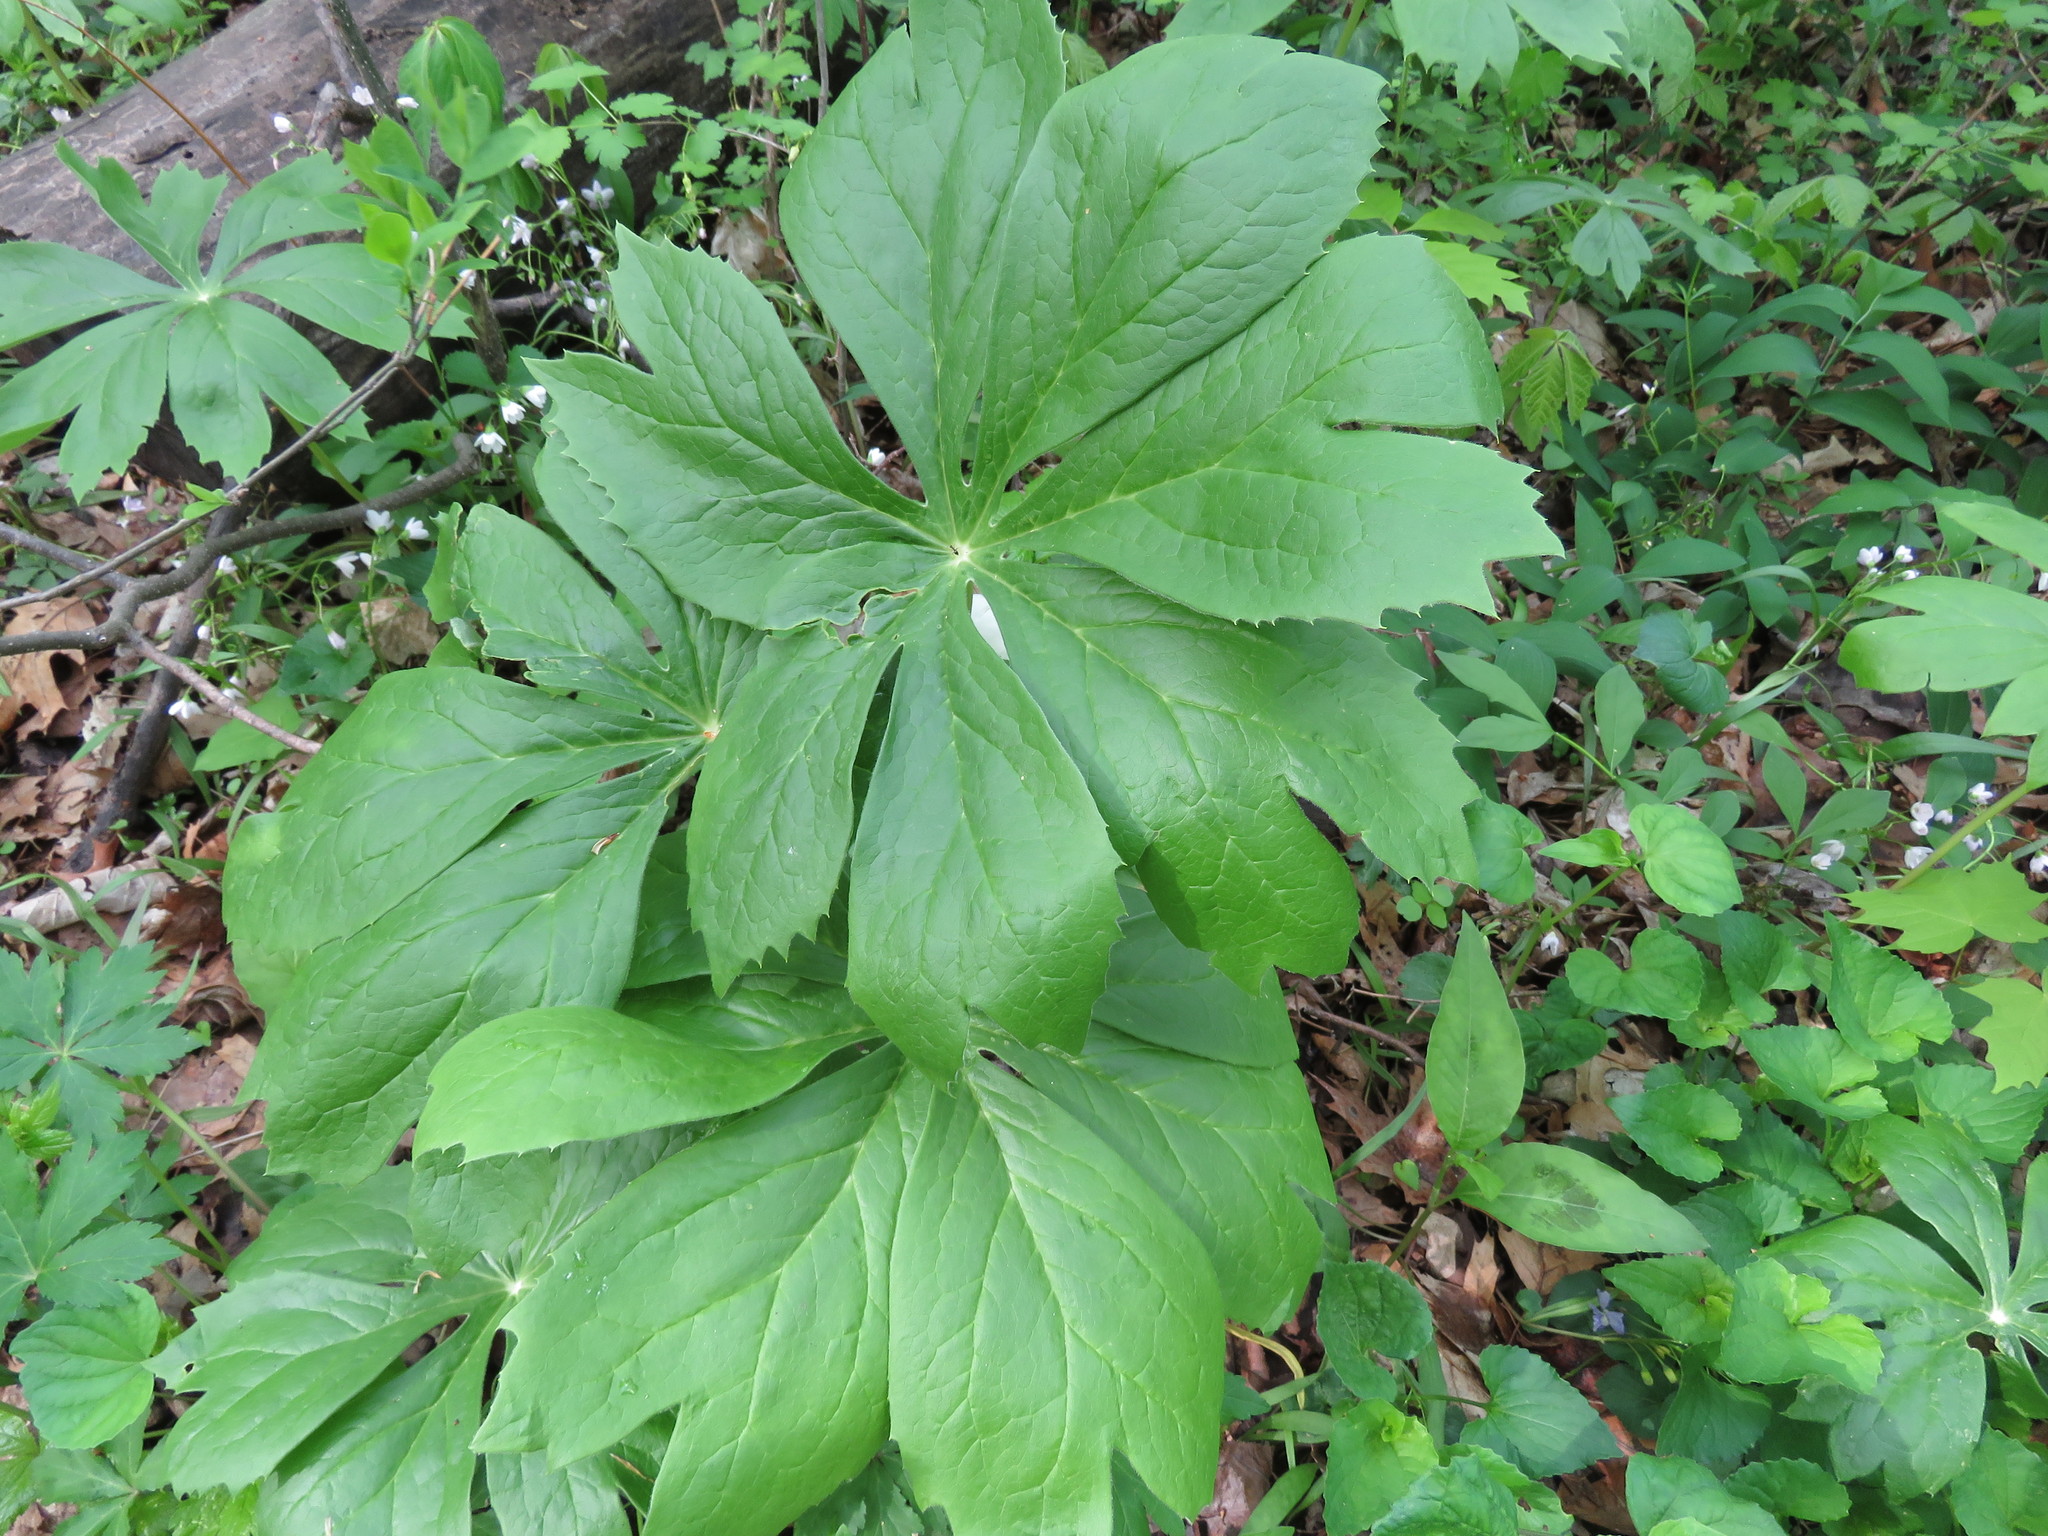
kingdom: Plantae
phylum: Tracheophyta
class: Magnoliopsida
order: Ranunculales
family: Berberidaceae
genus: Podophyllum
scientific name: Podophyllum peltatum
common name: Wild mandrake
